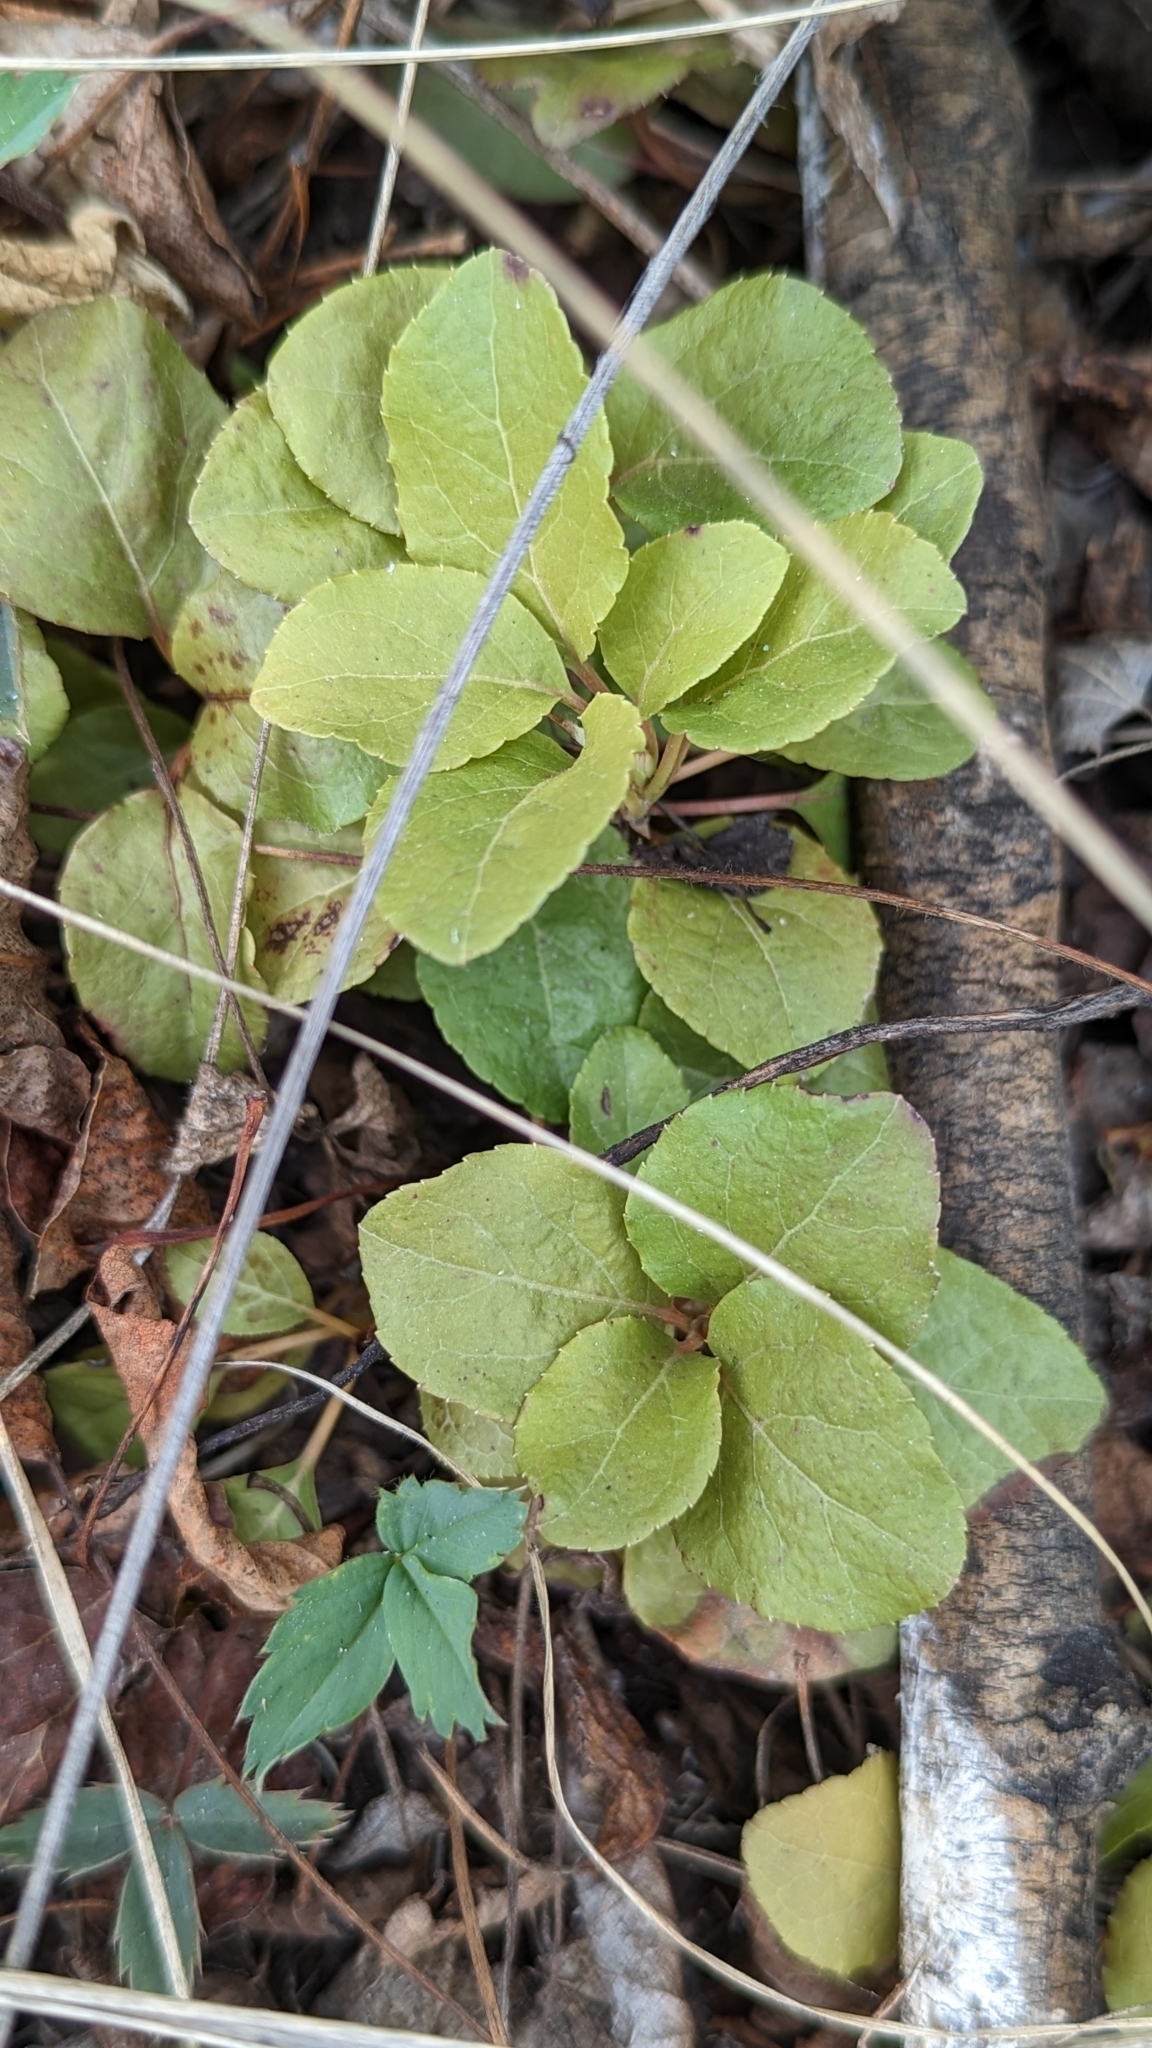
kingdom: Plantae
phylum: Tracheophyta
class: Magnoliopsida
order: Ericales
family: Ericaceae
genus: Orthilia
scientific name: Orthilia secunda
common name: One-sided orthilia
